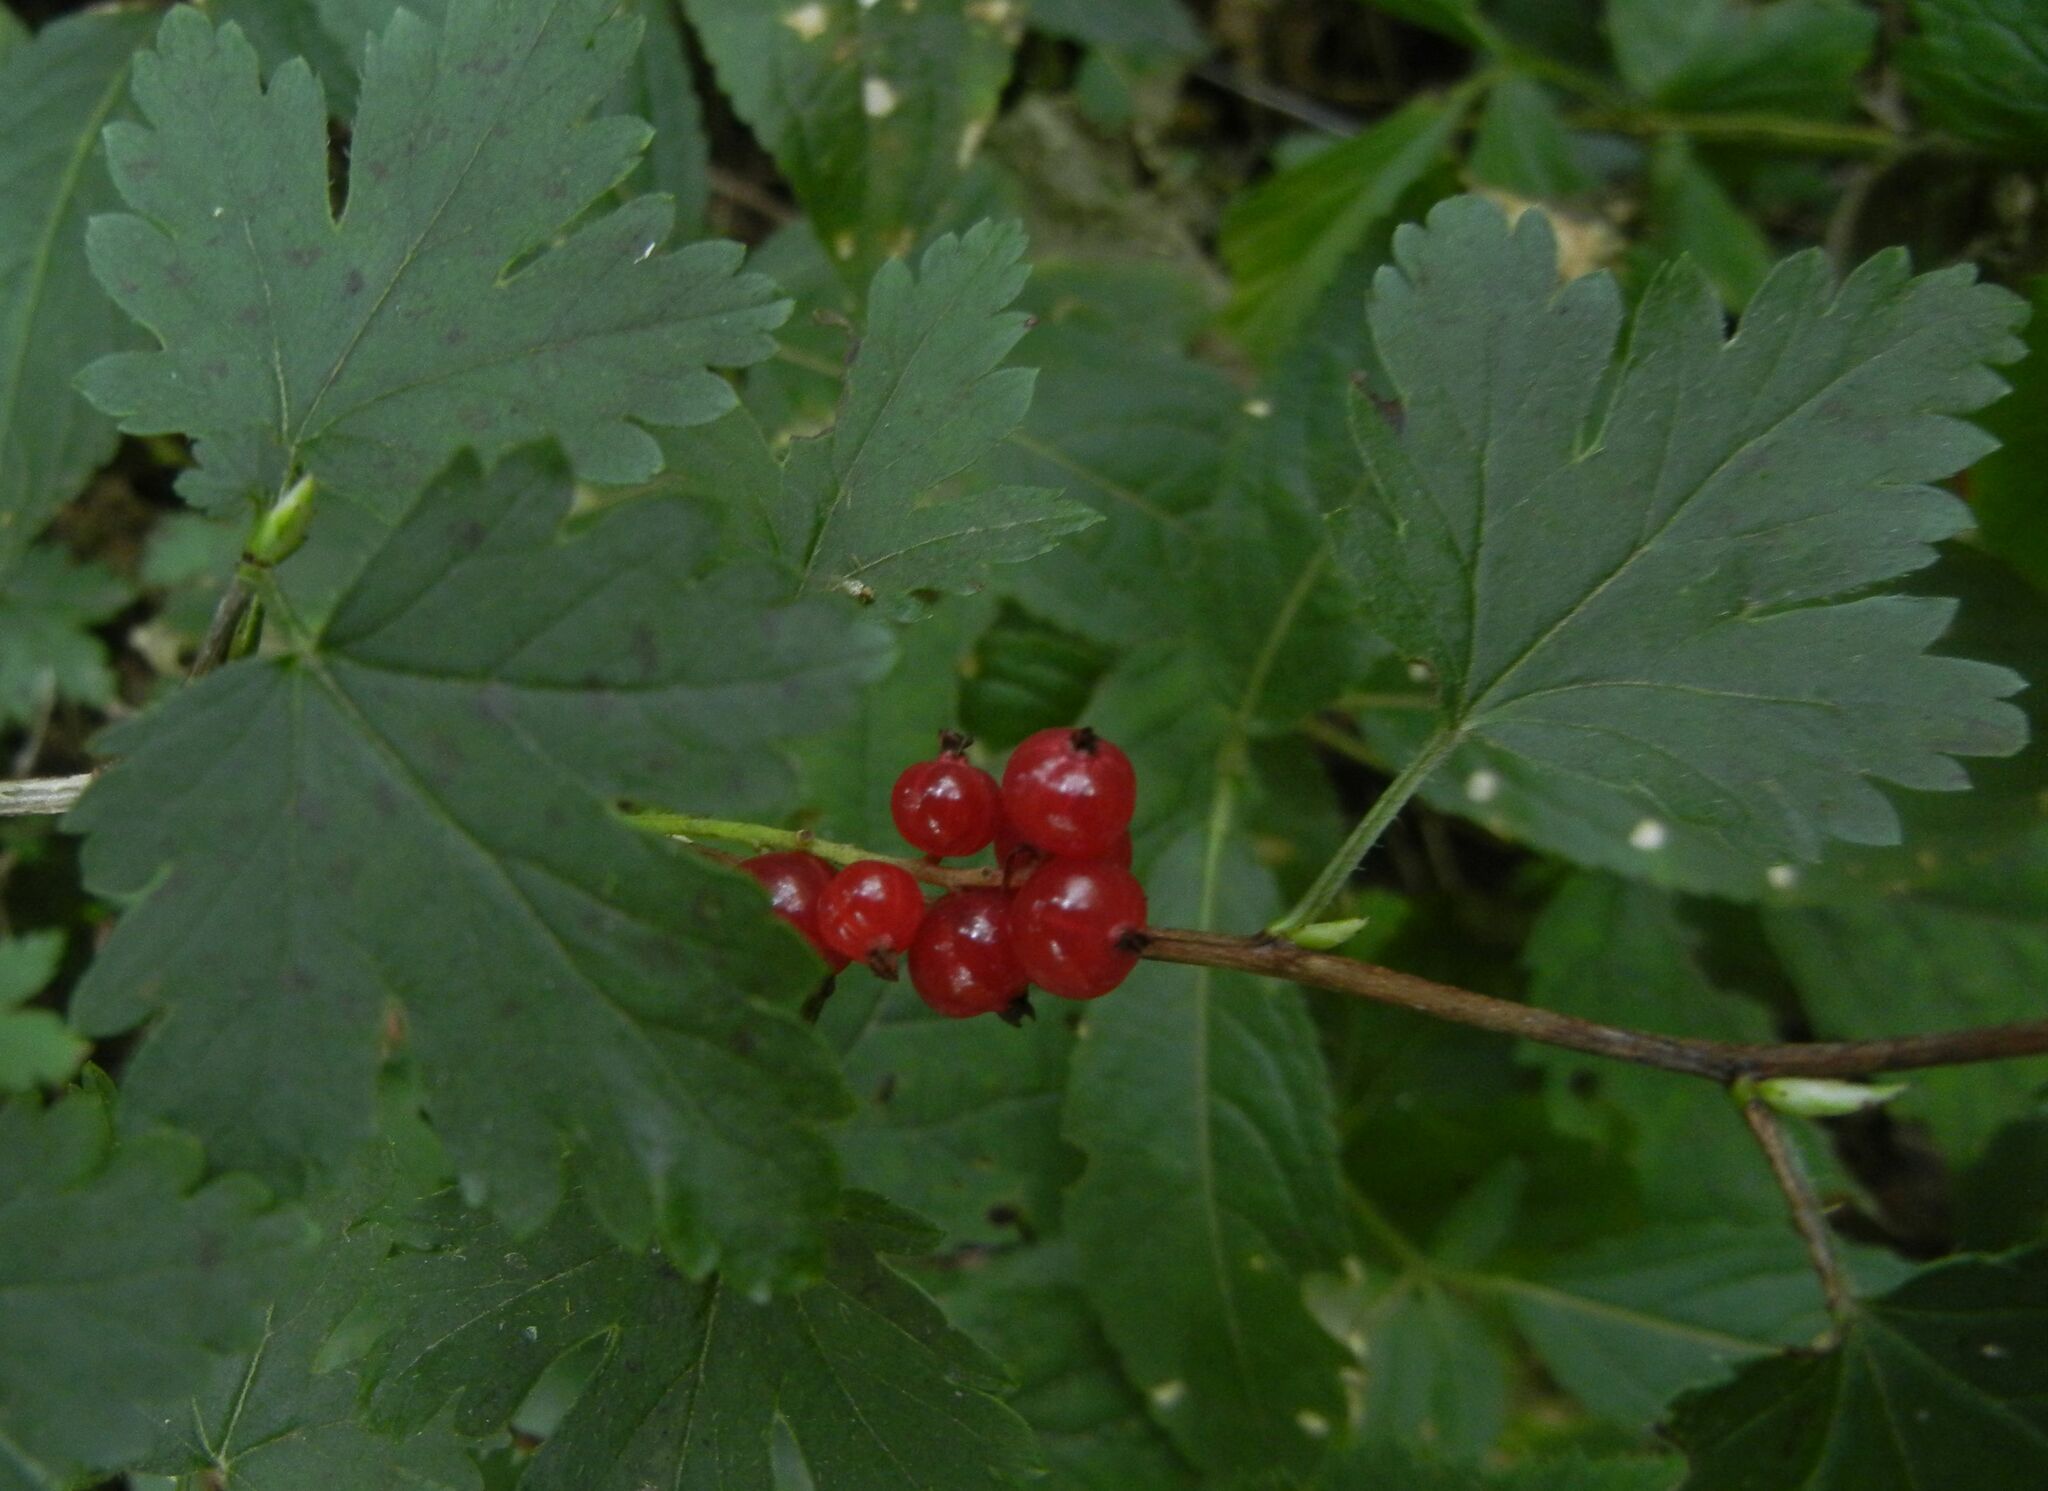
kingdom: Plantae
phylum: Tracheophyta
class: Magnoliopsida
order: Saxifragales
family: Grossulariaceae
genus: Ribes
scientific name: Ribes alpinum
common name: Alpine currant
